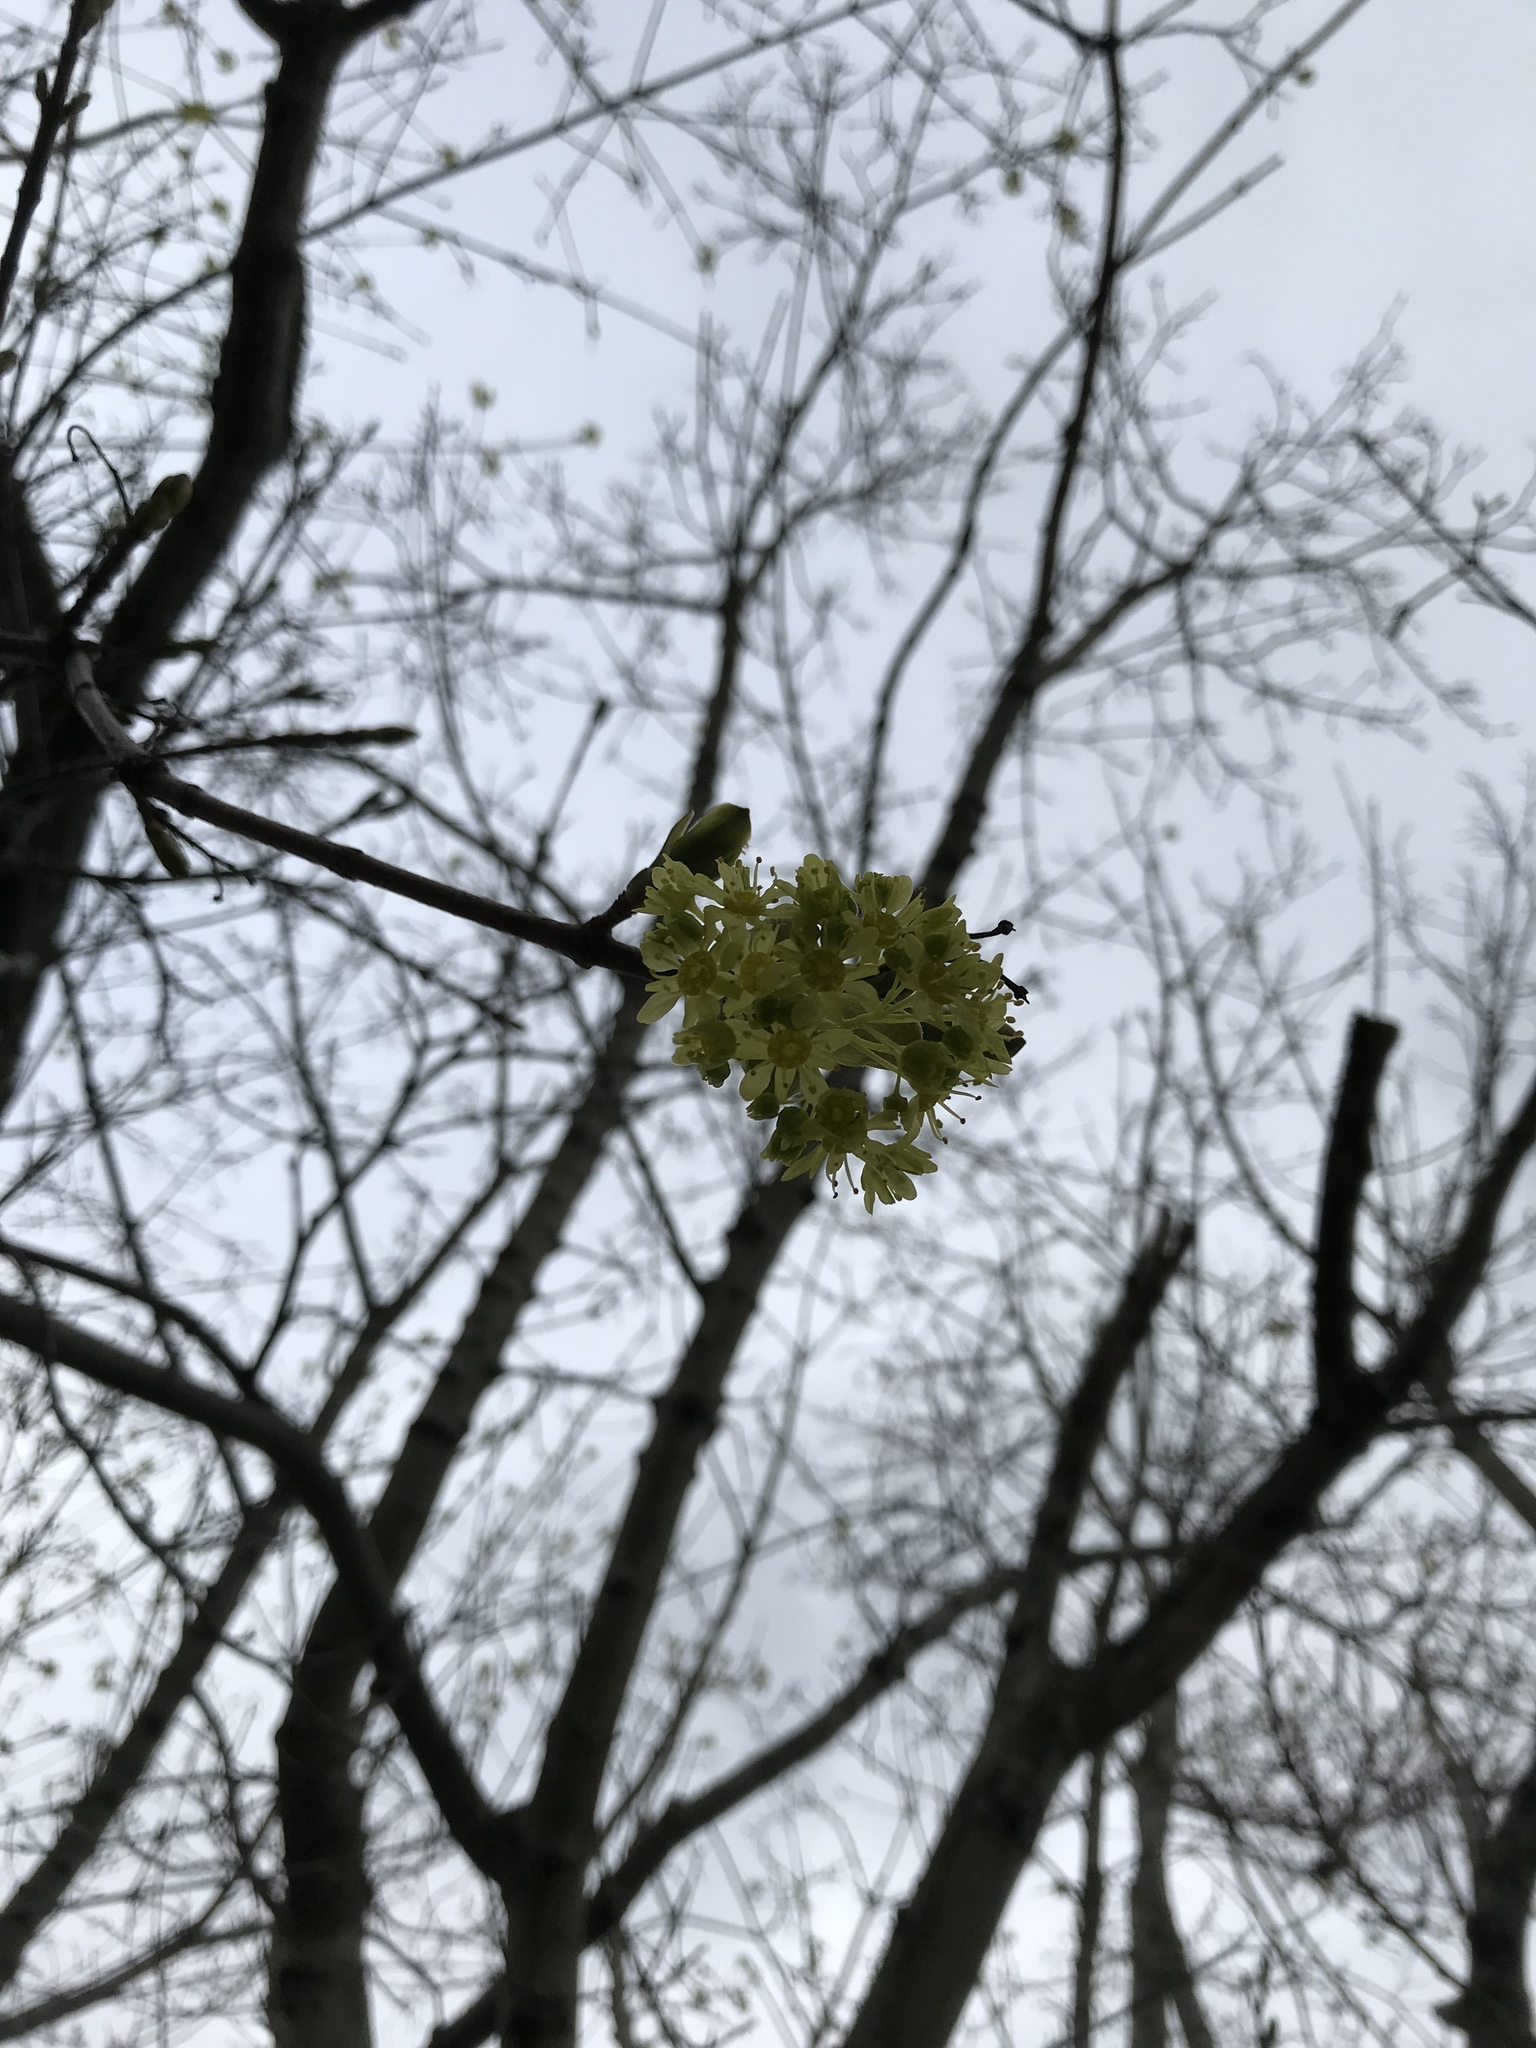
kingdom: Plantae
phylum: Tracheophyta
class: Magnoliopsida
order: Sapindales
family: Sapindaceae
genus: Acer
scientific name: Acer platanoides
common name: Norway maple
